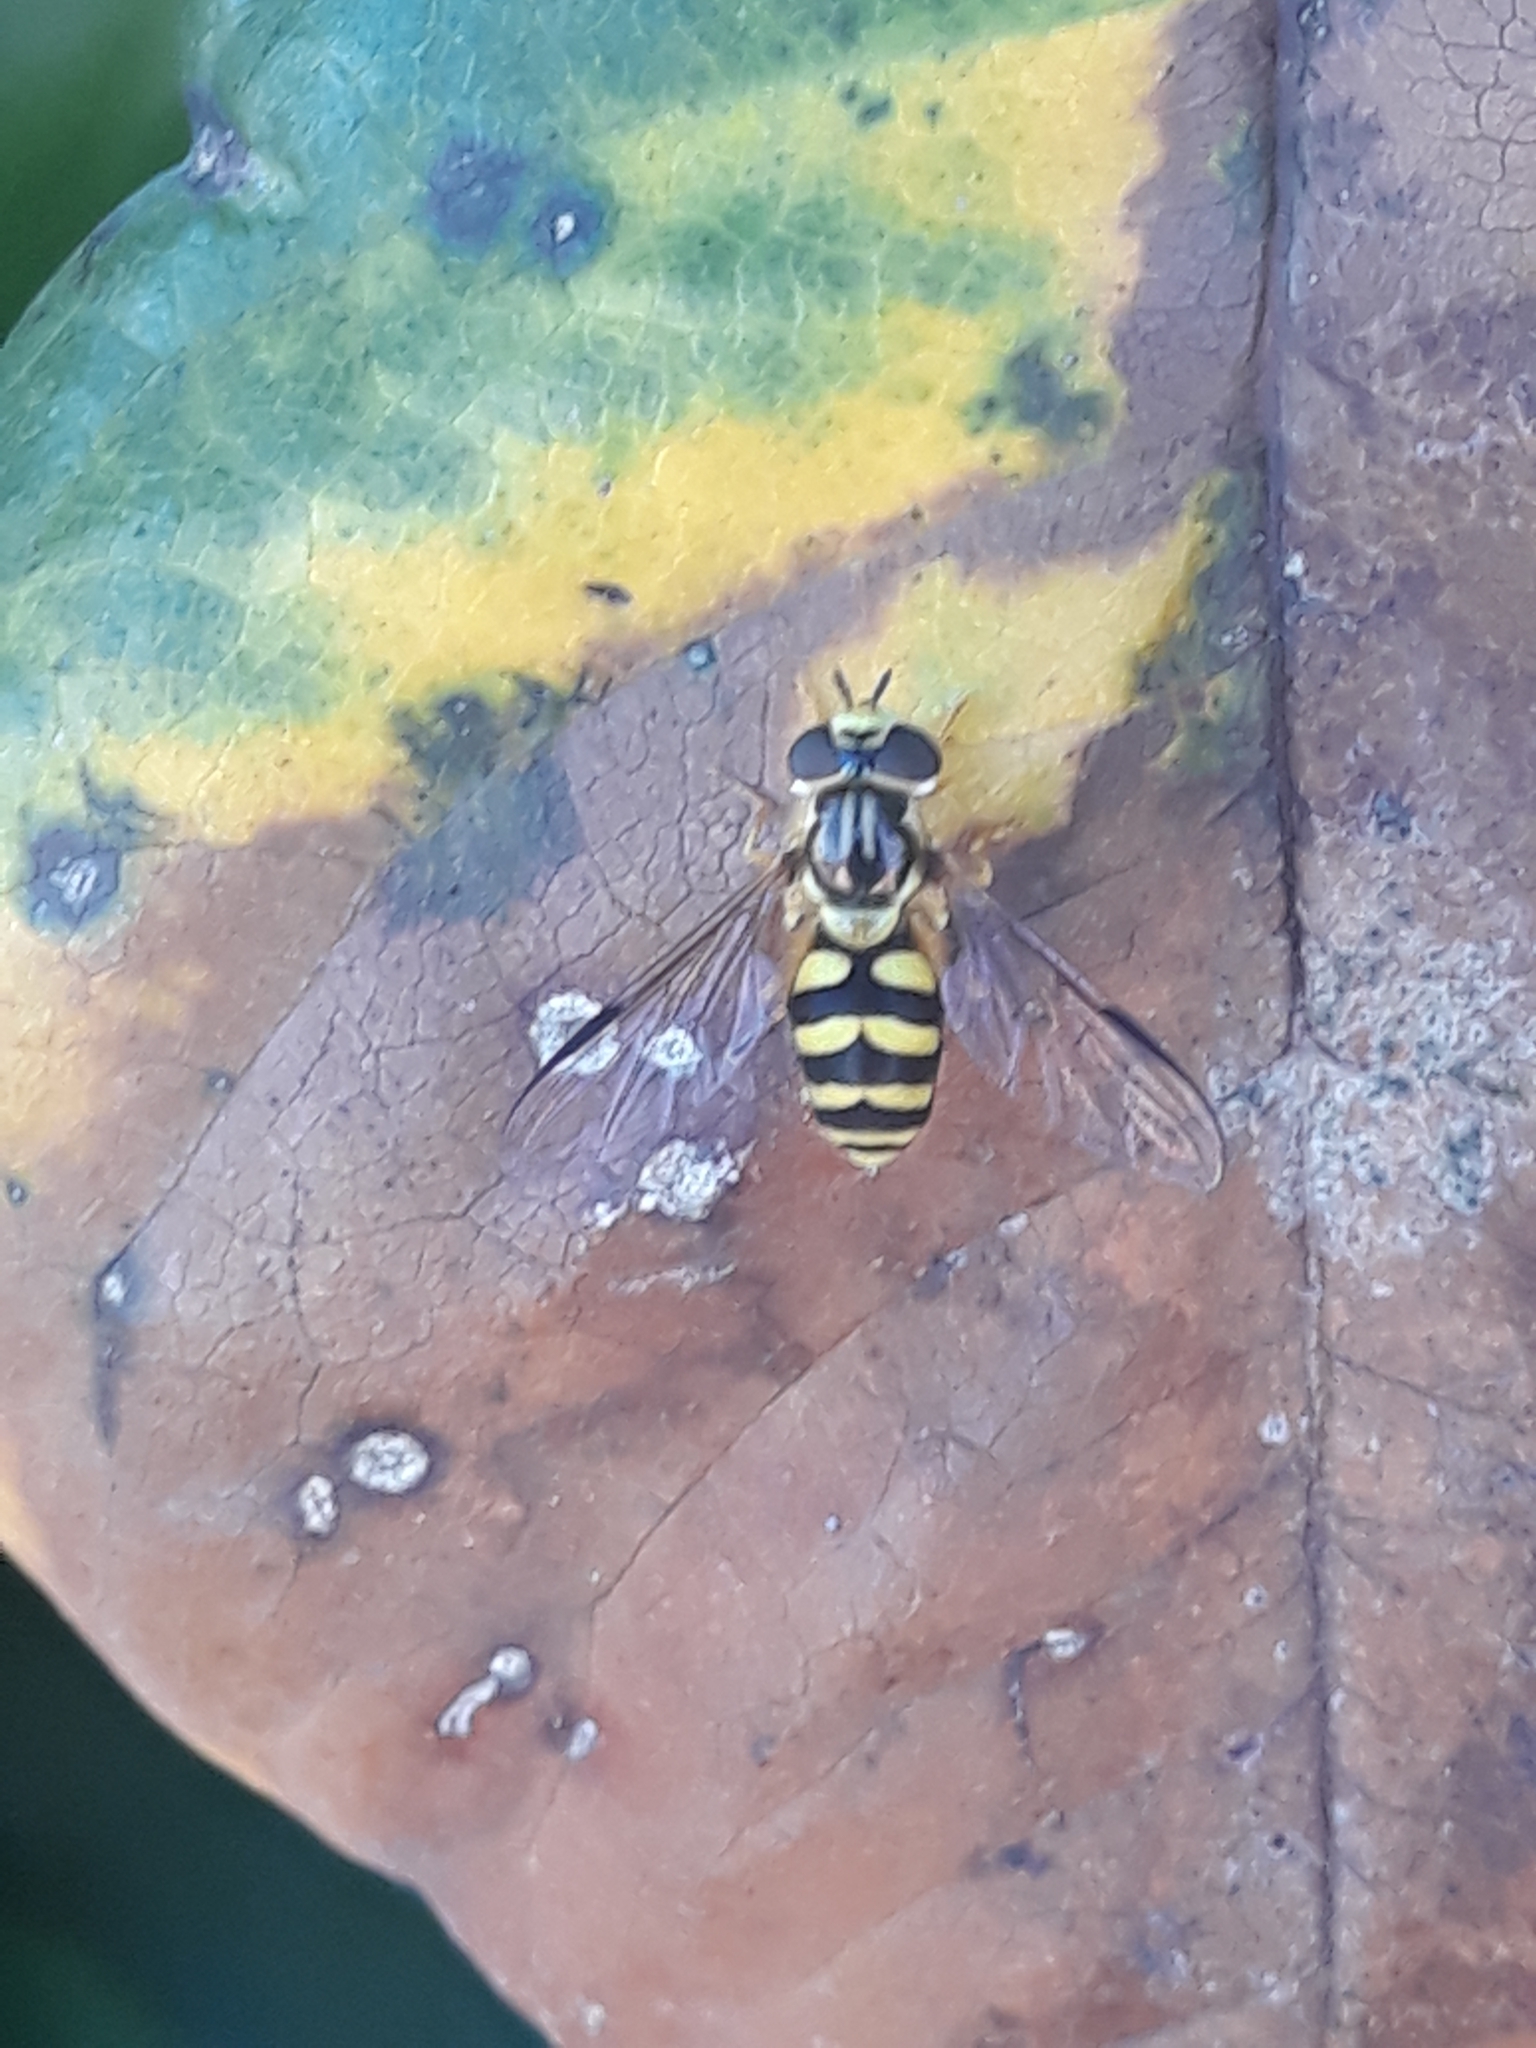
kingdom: Animalia
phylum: Arthropoda
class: Insecta
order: Diptera
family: Syrphidae
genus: Dasysyrphus
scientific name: Dasysyrphus albostriatus
